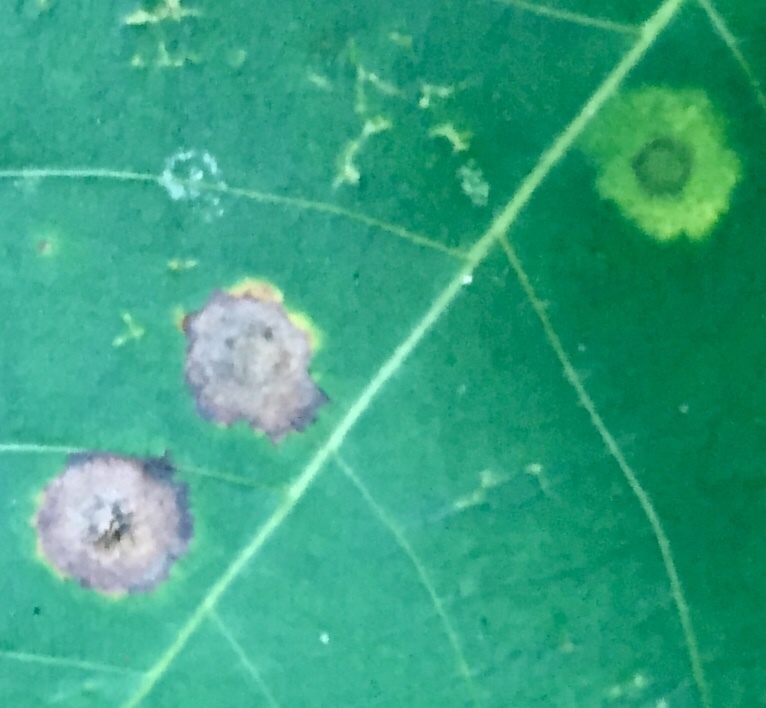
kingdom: Animalia
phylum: Arthropoda
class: Insecta
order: Diptera
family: Cecidomyiidae
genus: Gliaspilota
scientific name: Gliaspilota glutinosa
